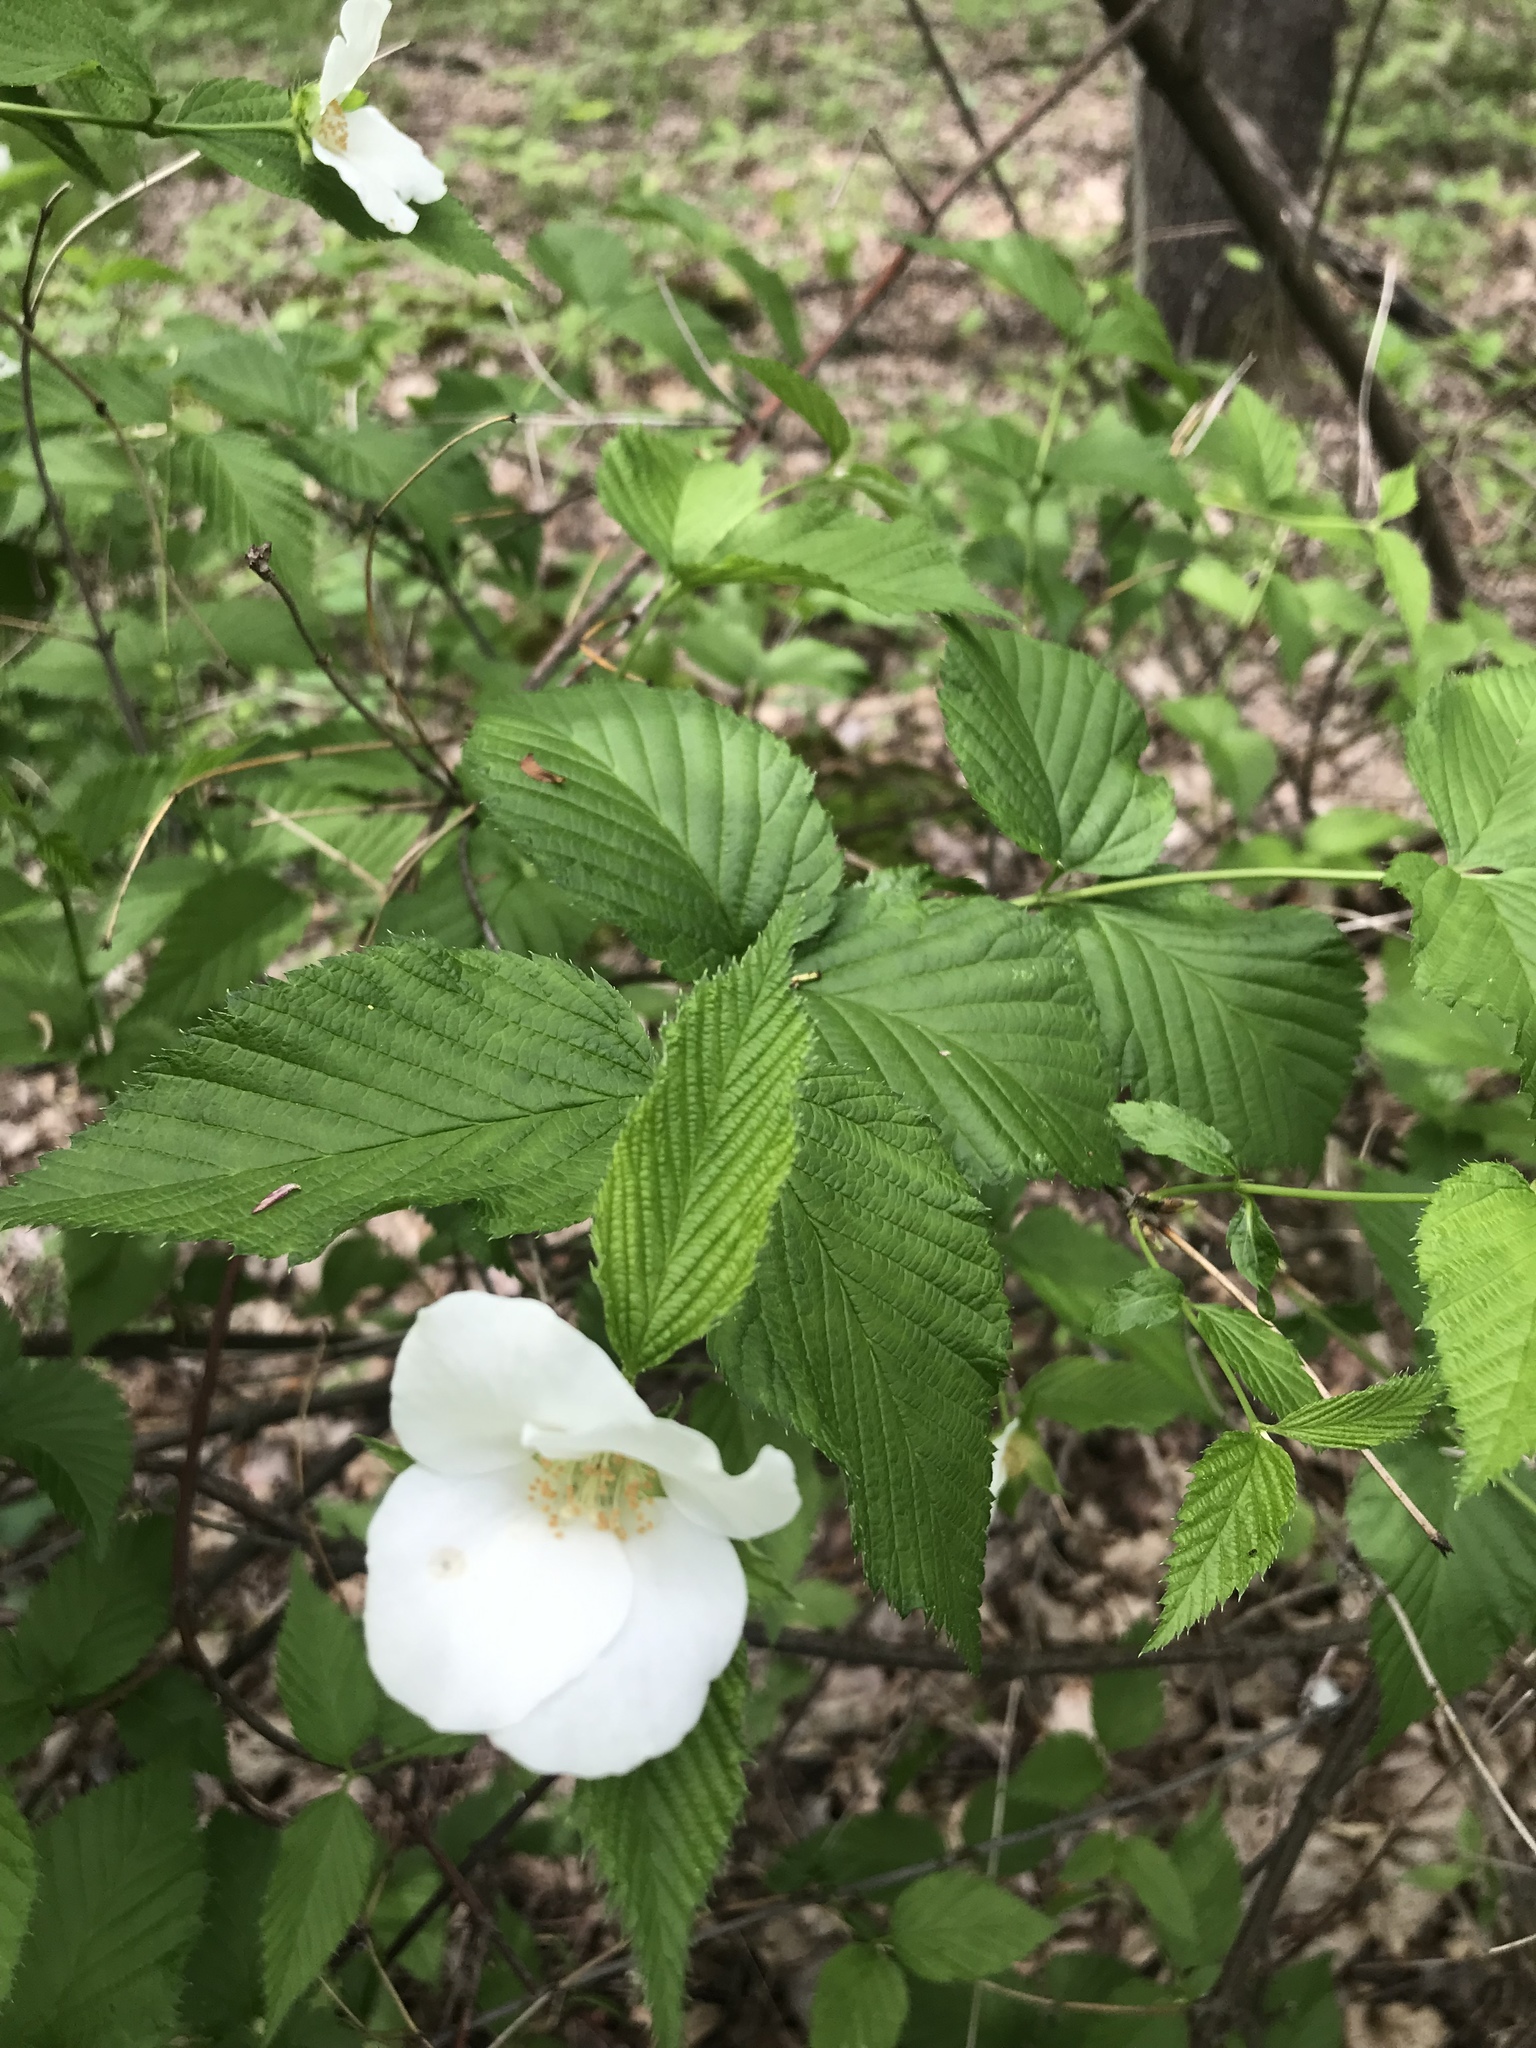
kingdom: Plantae
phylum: Tracheophyta
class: Magnoliopsida
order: Rosales
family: Rosaceae
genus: Rhodotypos
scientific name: Rhodotypos scandens
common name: Jetbead
